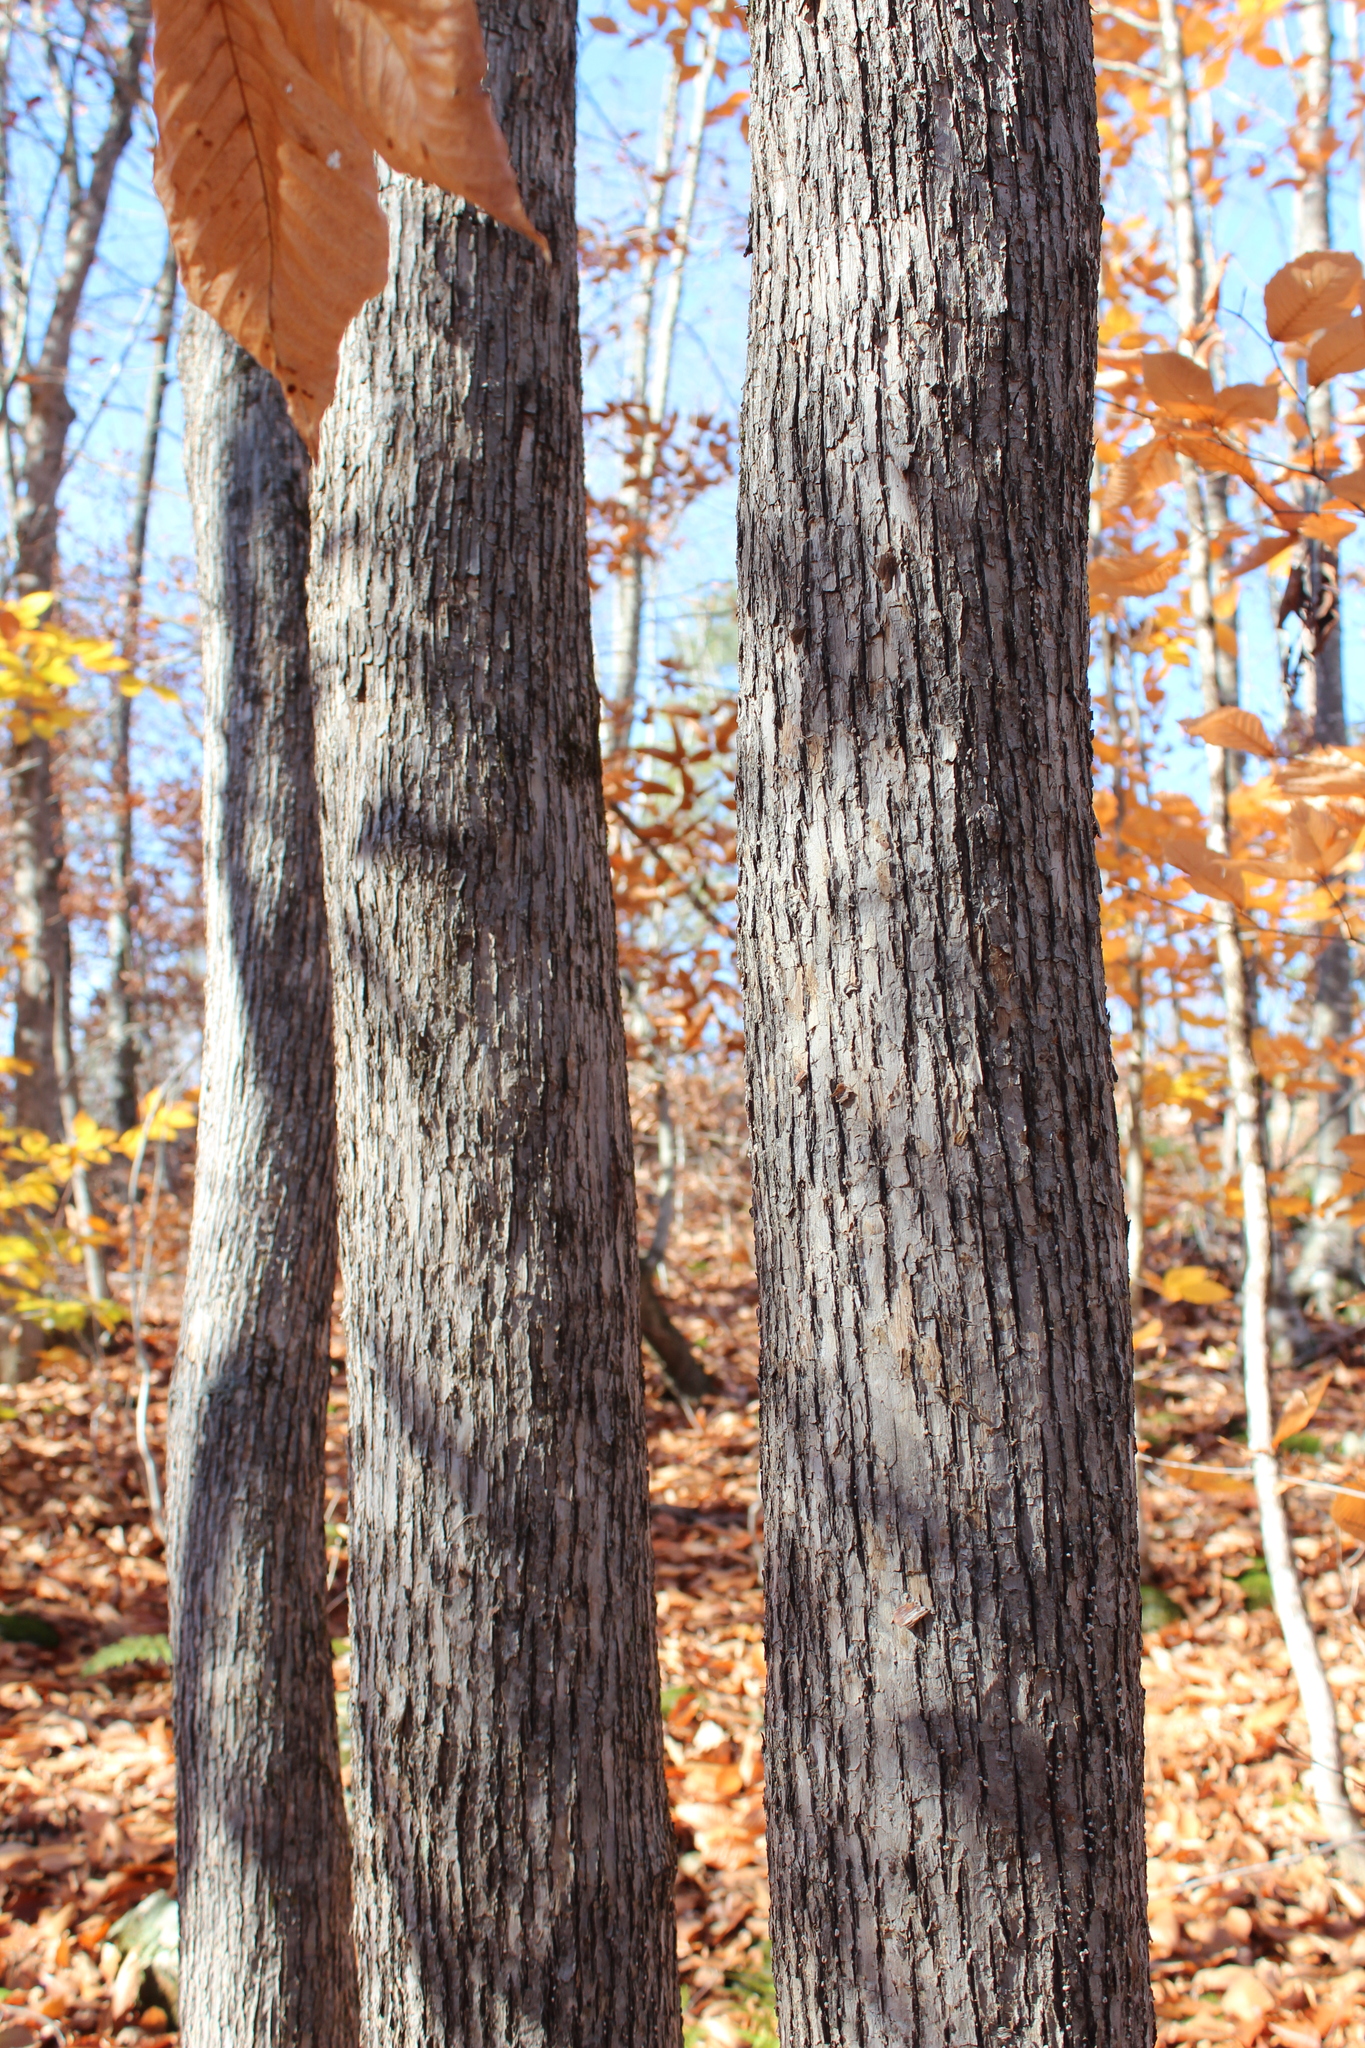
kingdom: Plantae
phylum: Tracheophyta
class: Magnoliopsida
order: Fagales
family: Betulaceae
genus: Ostrya
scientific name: Ostrya virginiana
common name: Ironwood
